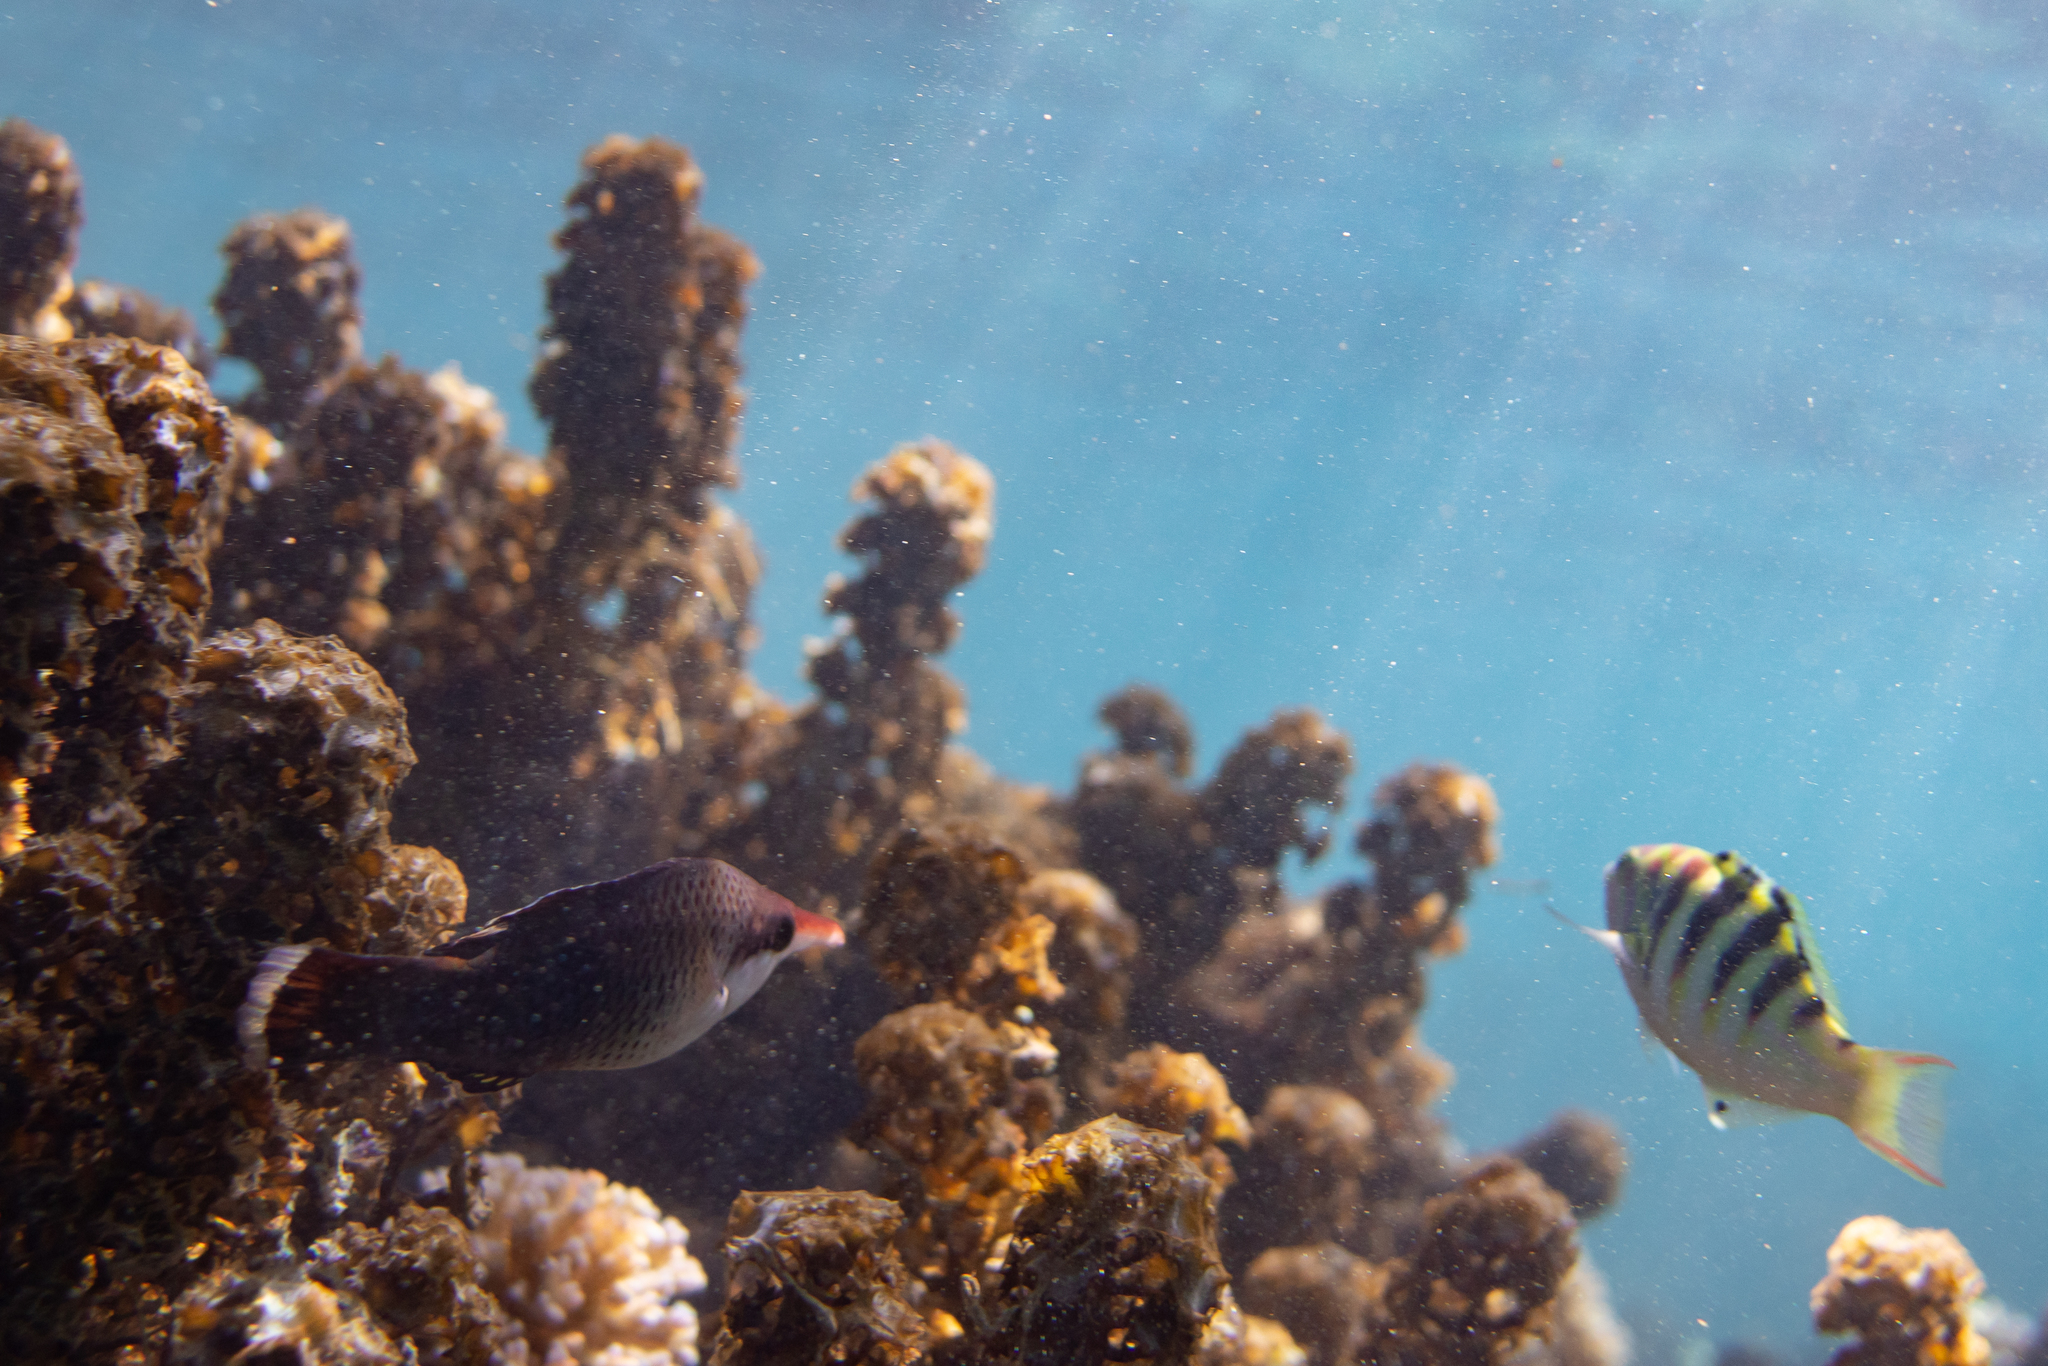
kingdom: Animalia
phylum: Chordata
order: Perciformes
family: Labridae
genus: Thalassoma
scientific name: Thalassoma hardwicke
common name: Sixbar wrasse
